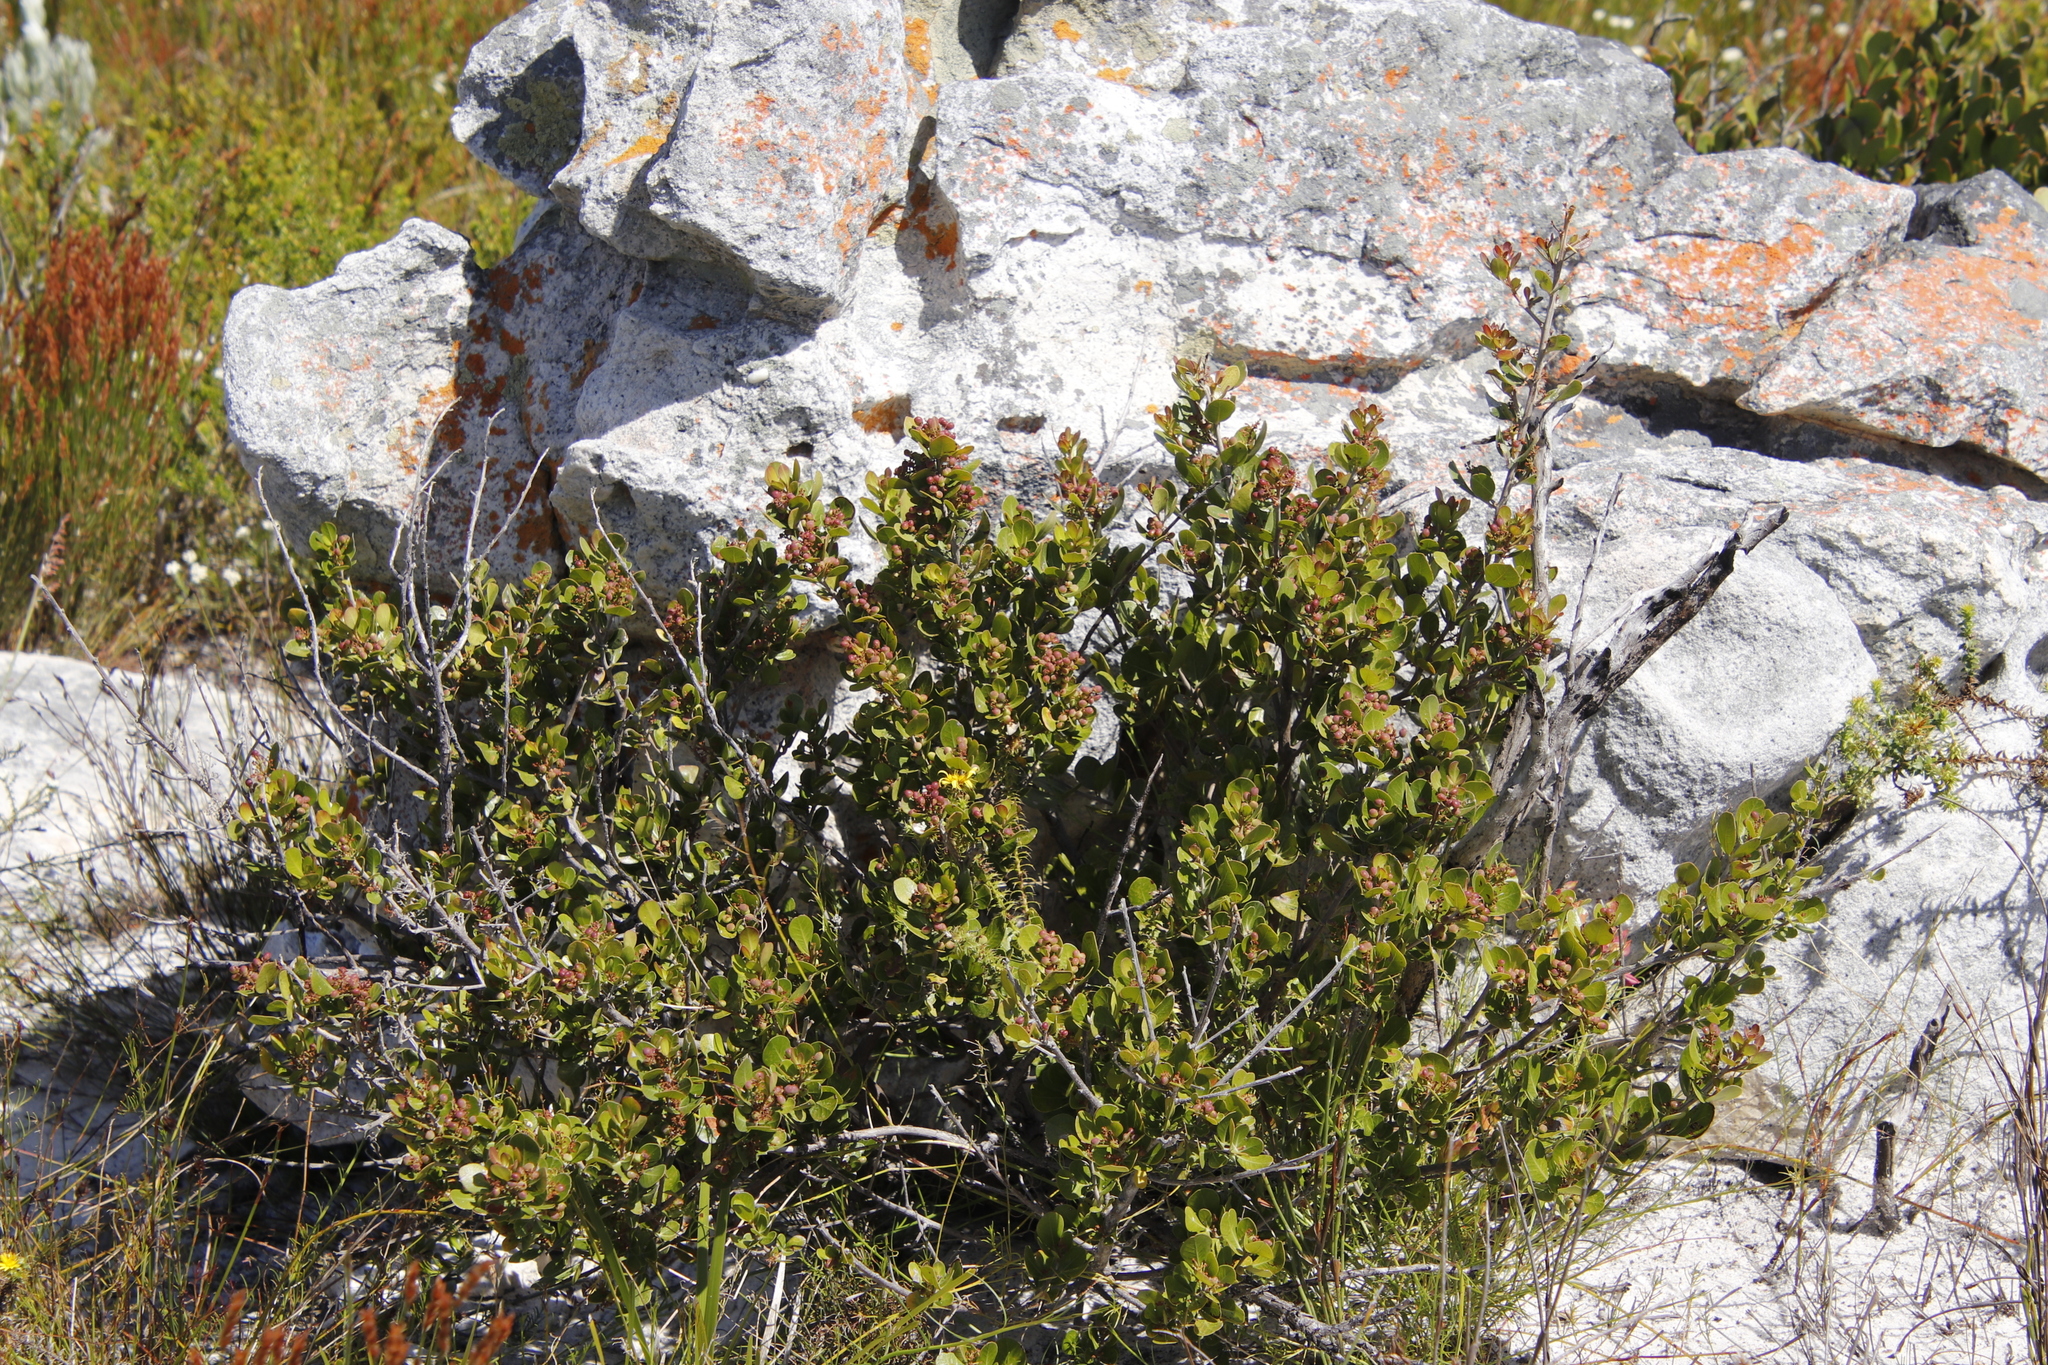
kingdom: Plantae
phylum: Tracheophyta
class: Magnoliopsida
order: Sapindales
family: Anacardiaceae
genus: Searsia
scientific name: Searsia lucida
